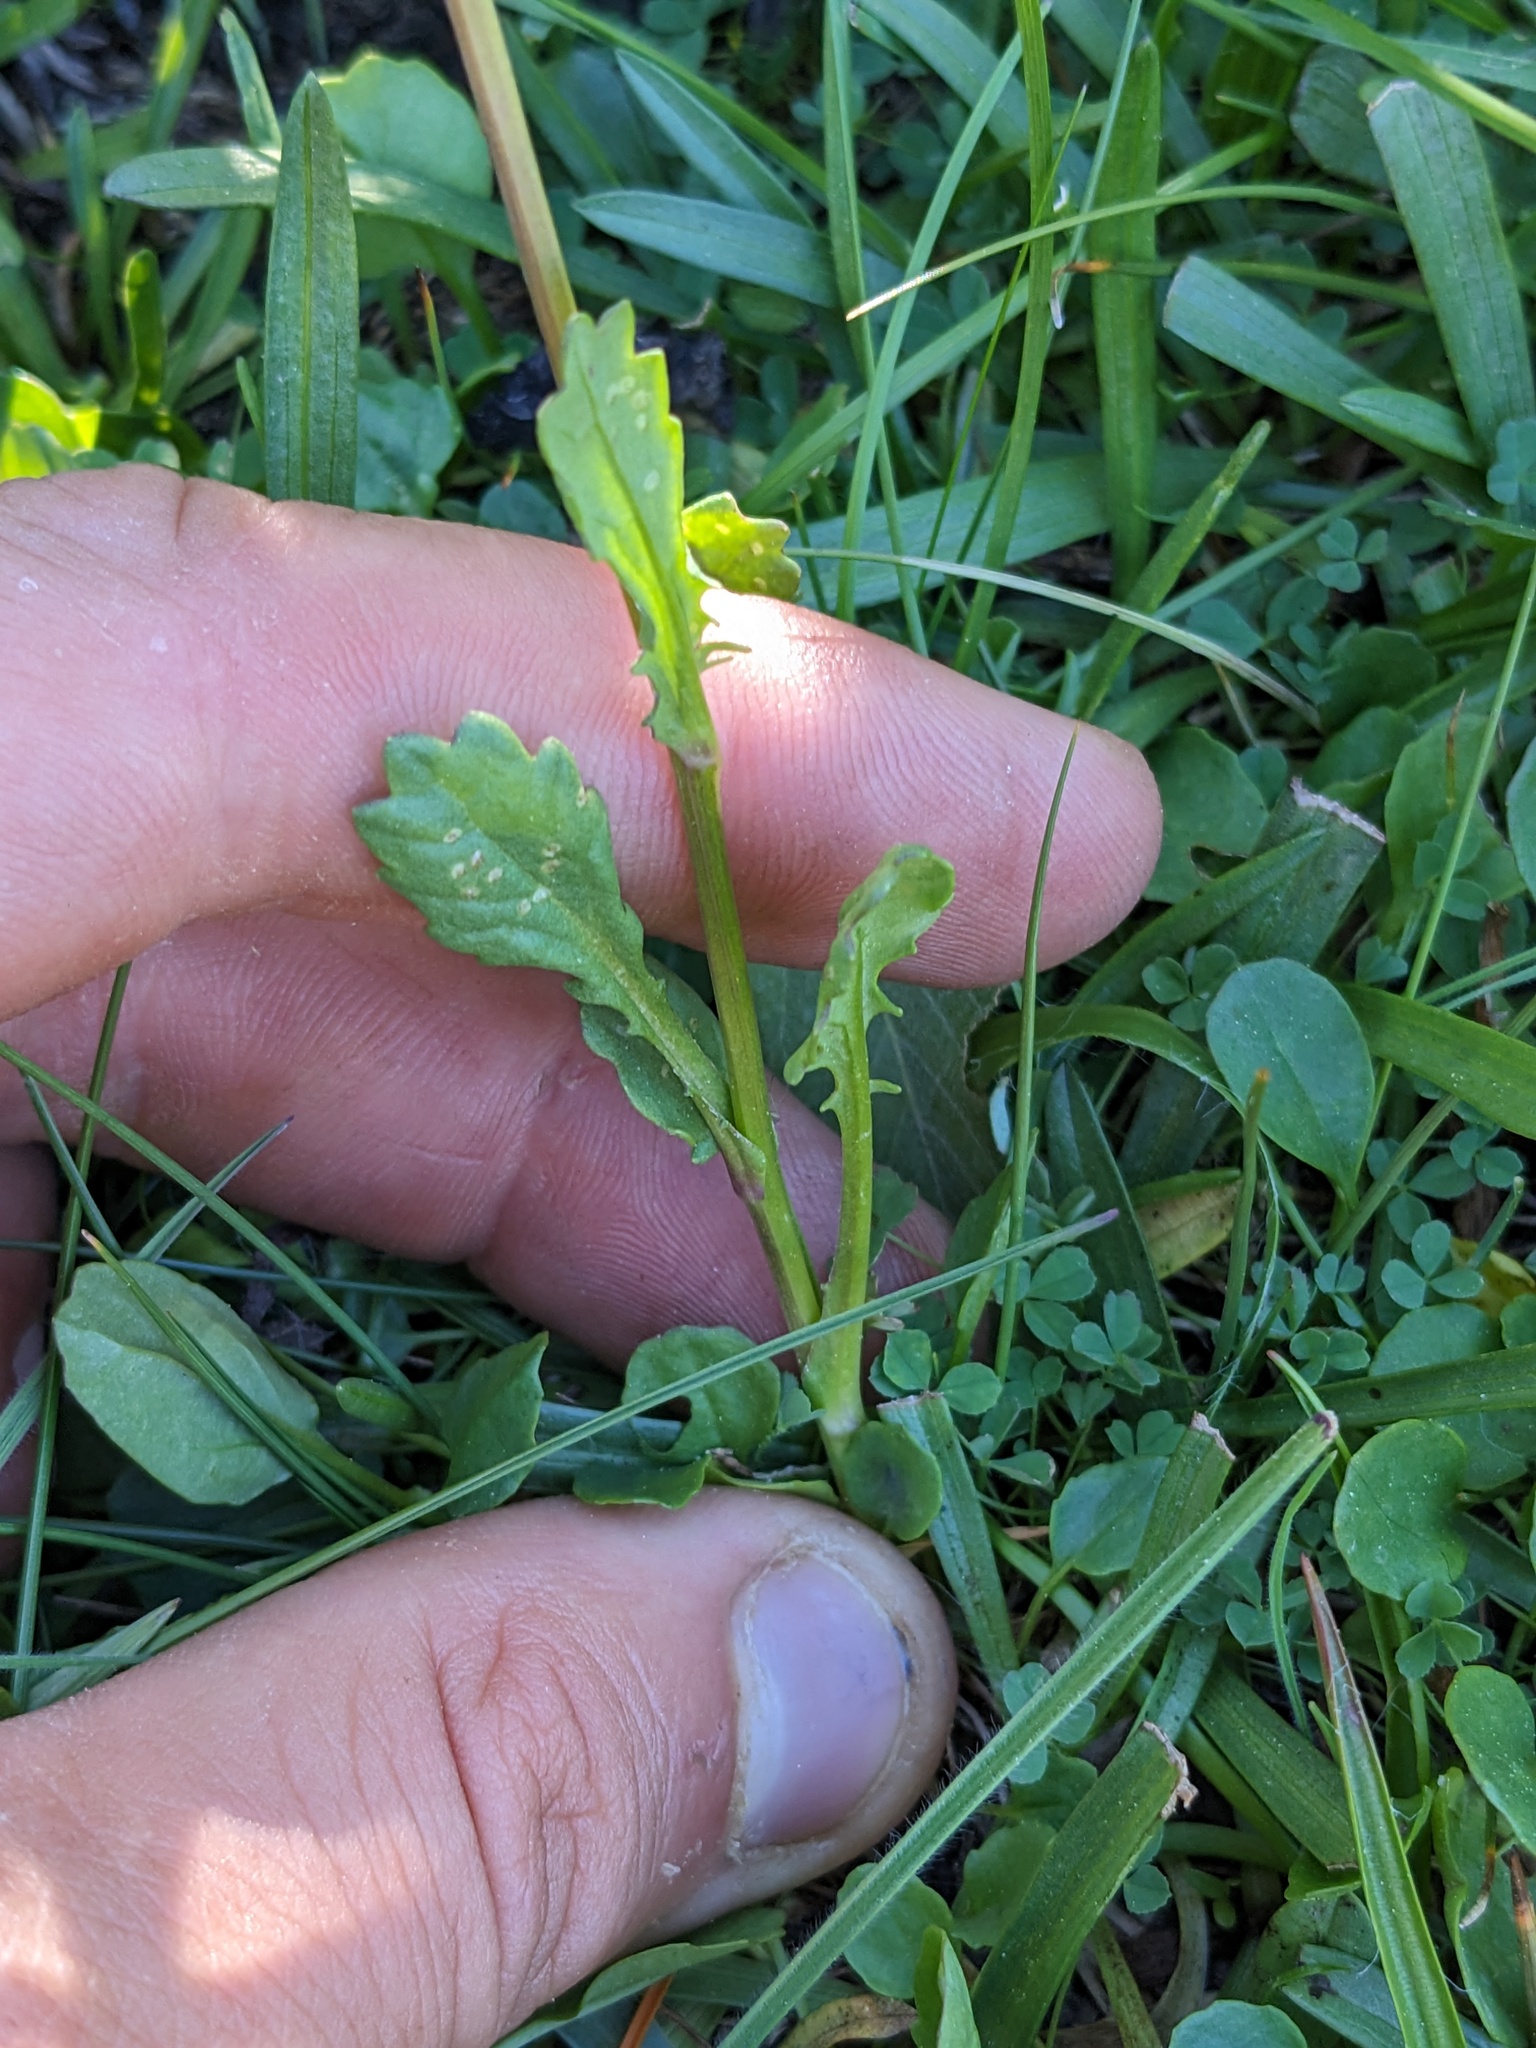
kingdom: Plantae
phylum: Tracheophyta
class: Magnoliopsida
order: Asterales
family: Asteraceae
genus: Packera
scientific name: Packera subnuda
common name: Buek's groundsel
